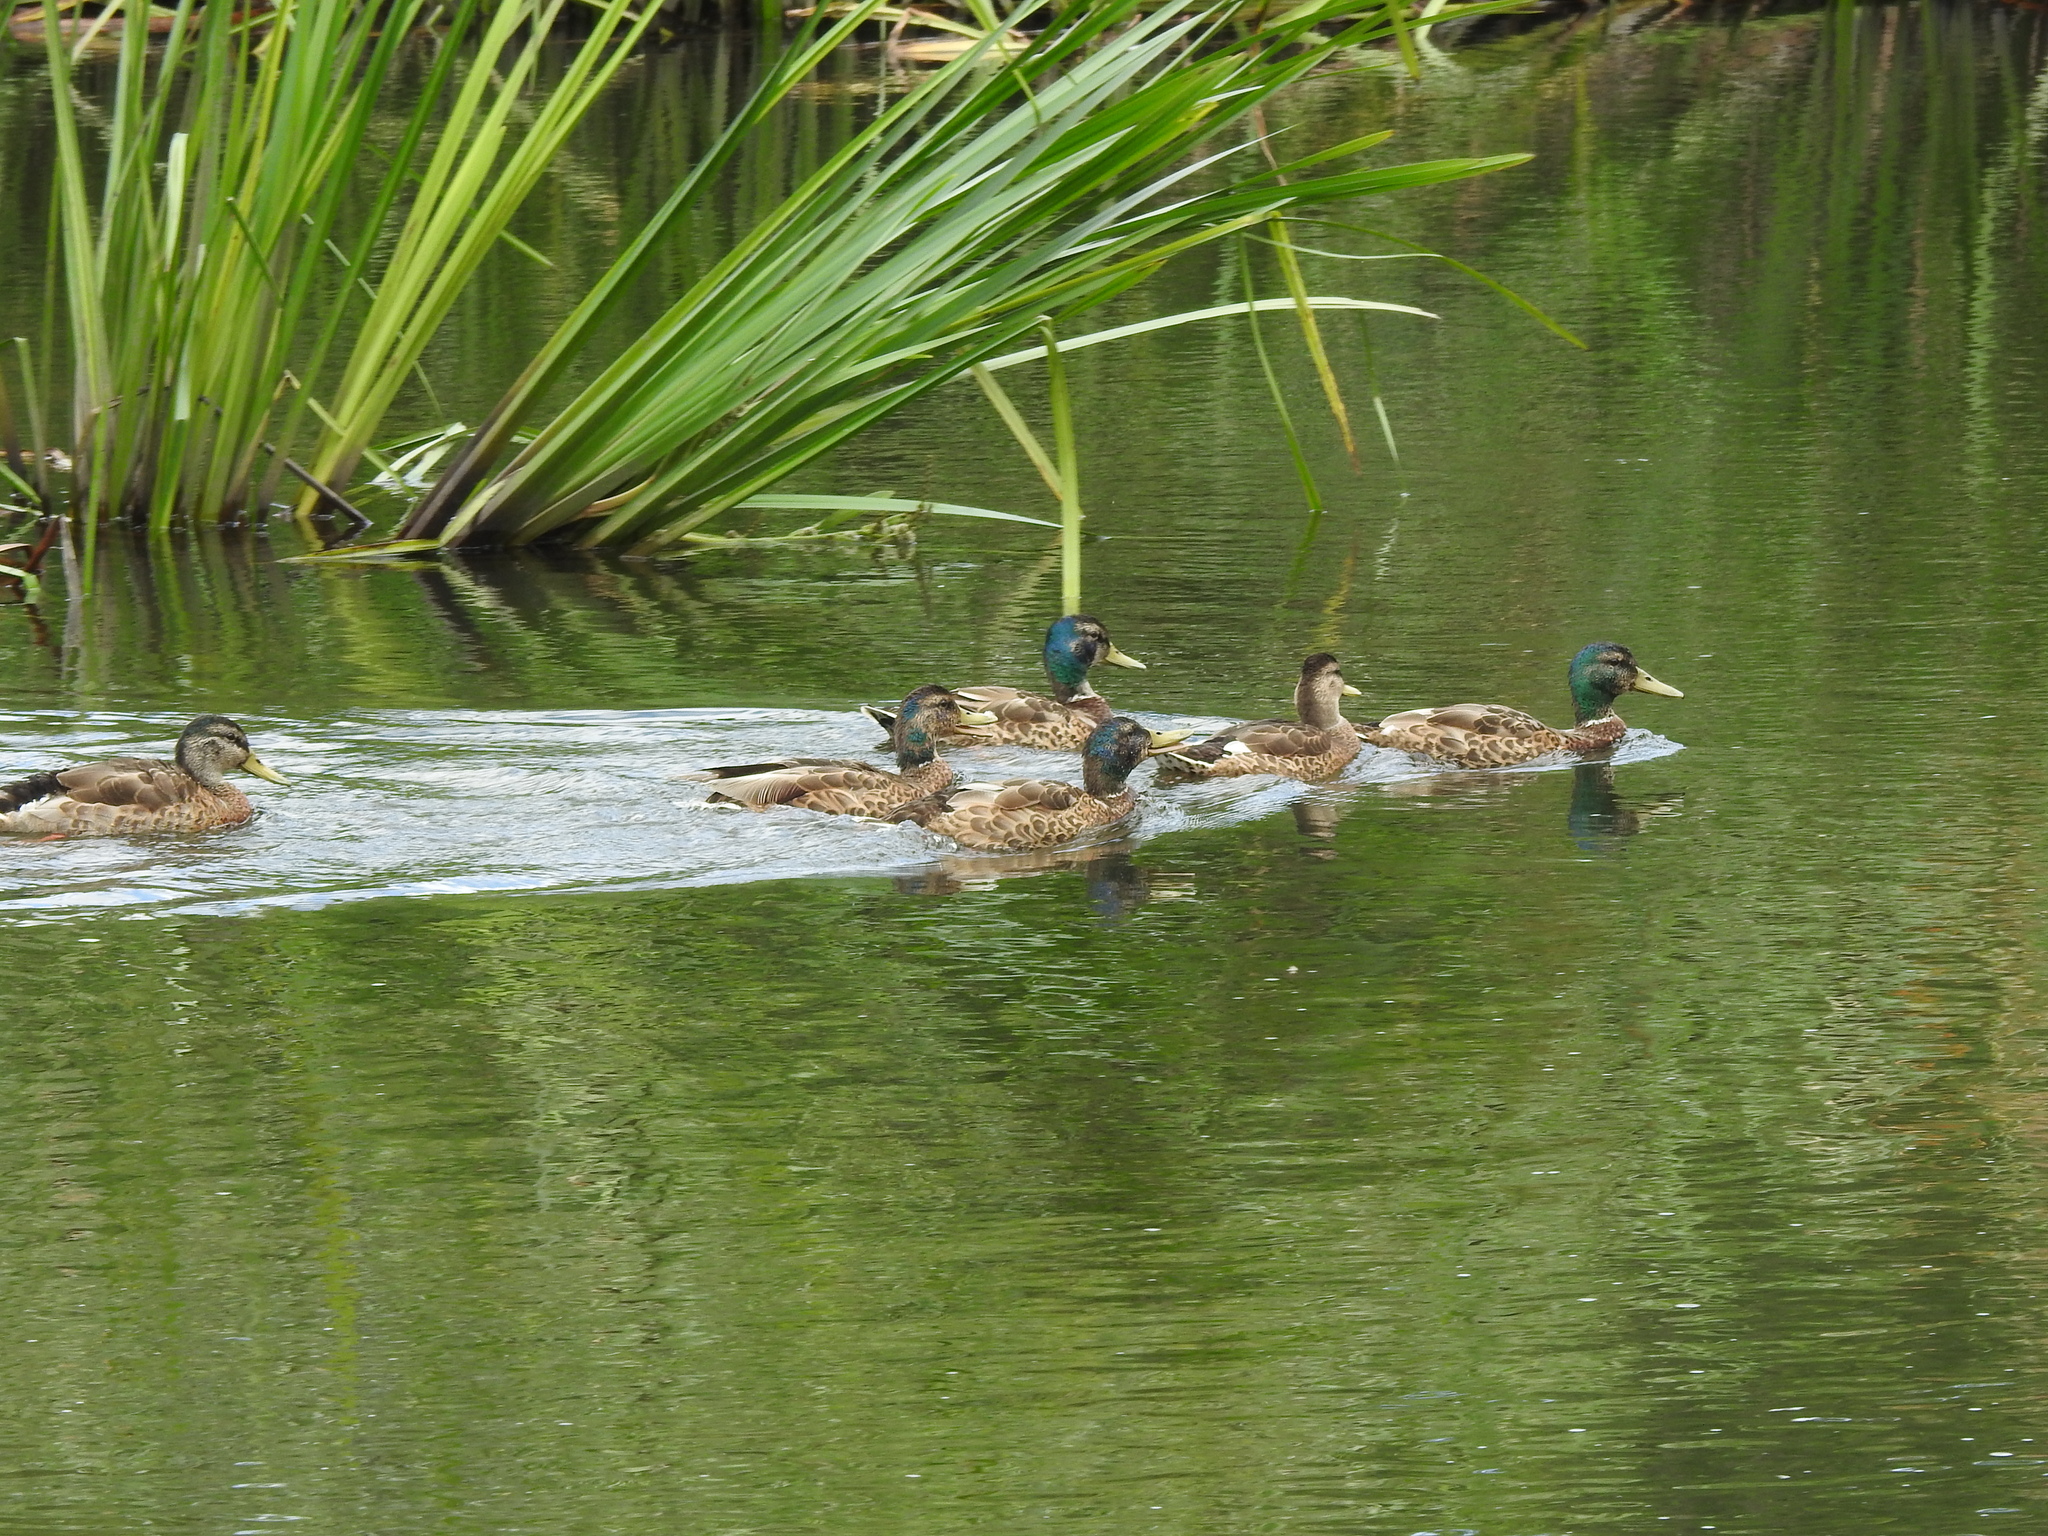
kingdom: Animalia
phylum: Chordata
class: Aves
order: Anseriformes
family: Anatidae
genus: Anas
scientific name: Anas platyrhynchos
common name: Mallard
